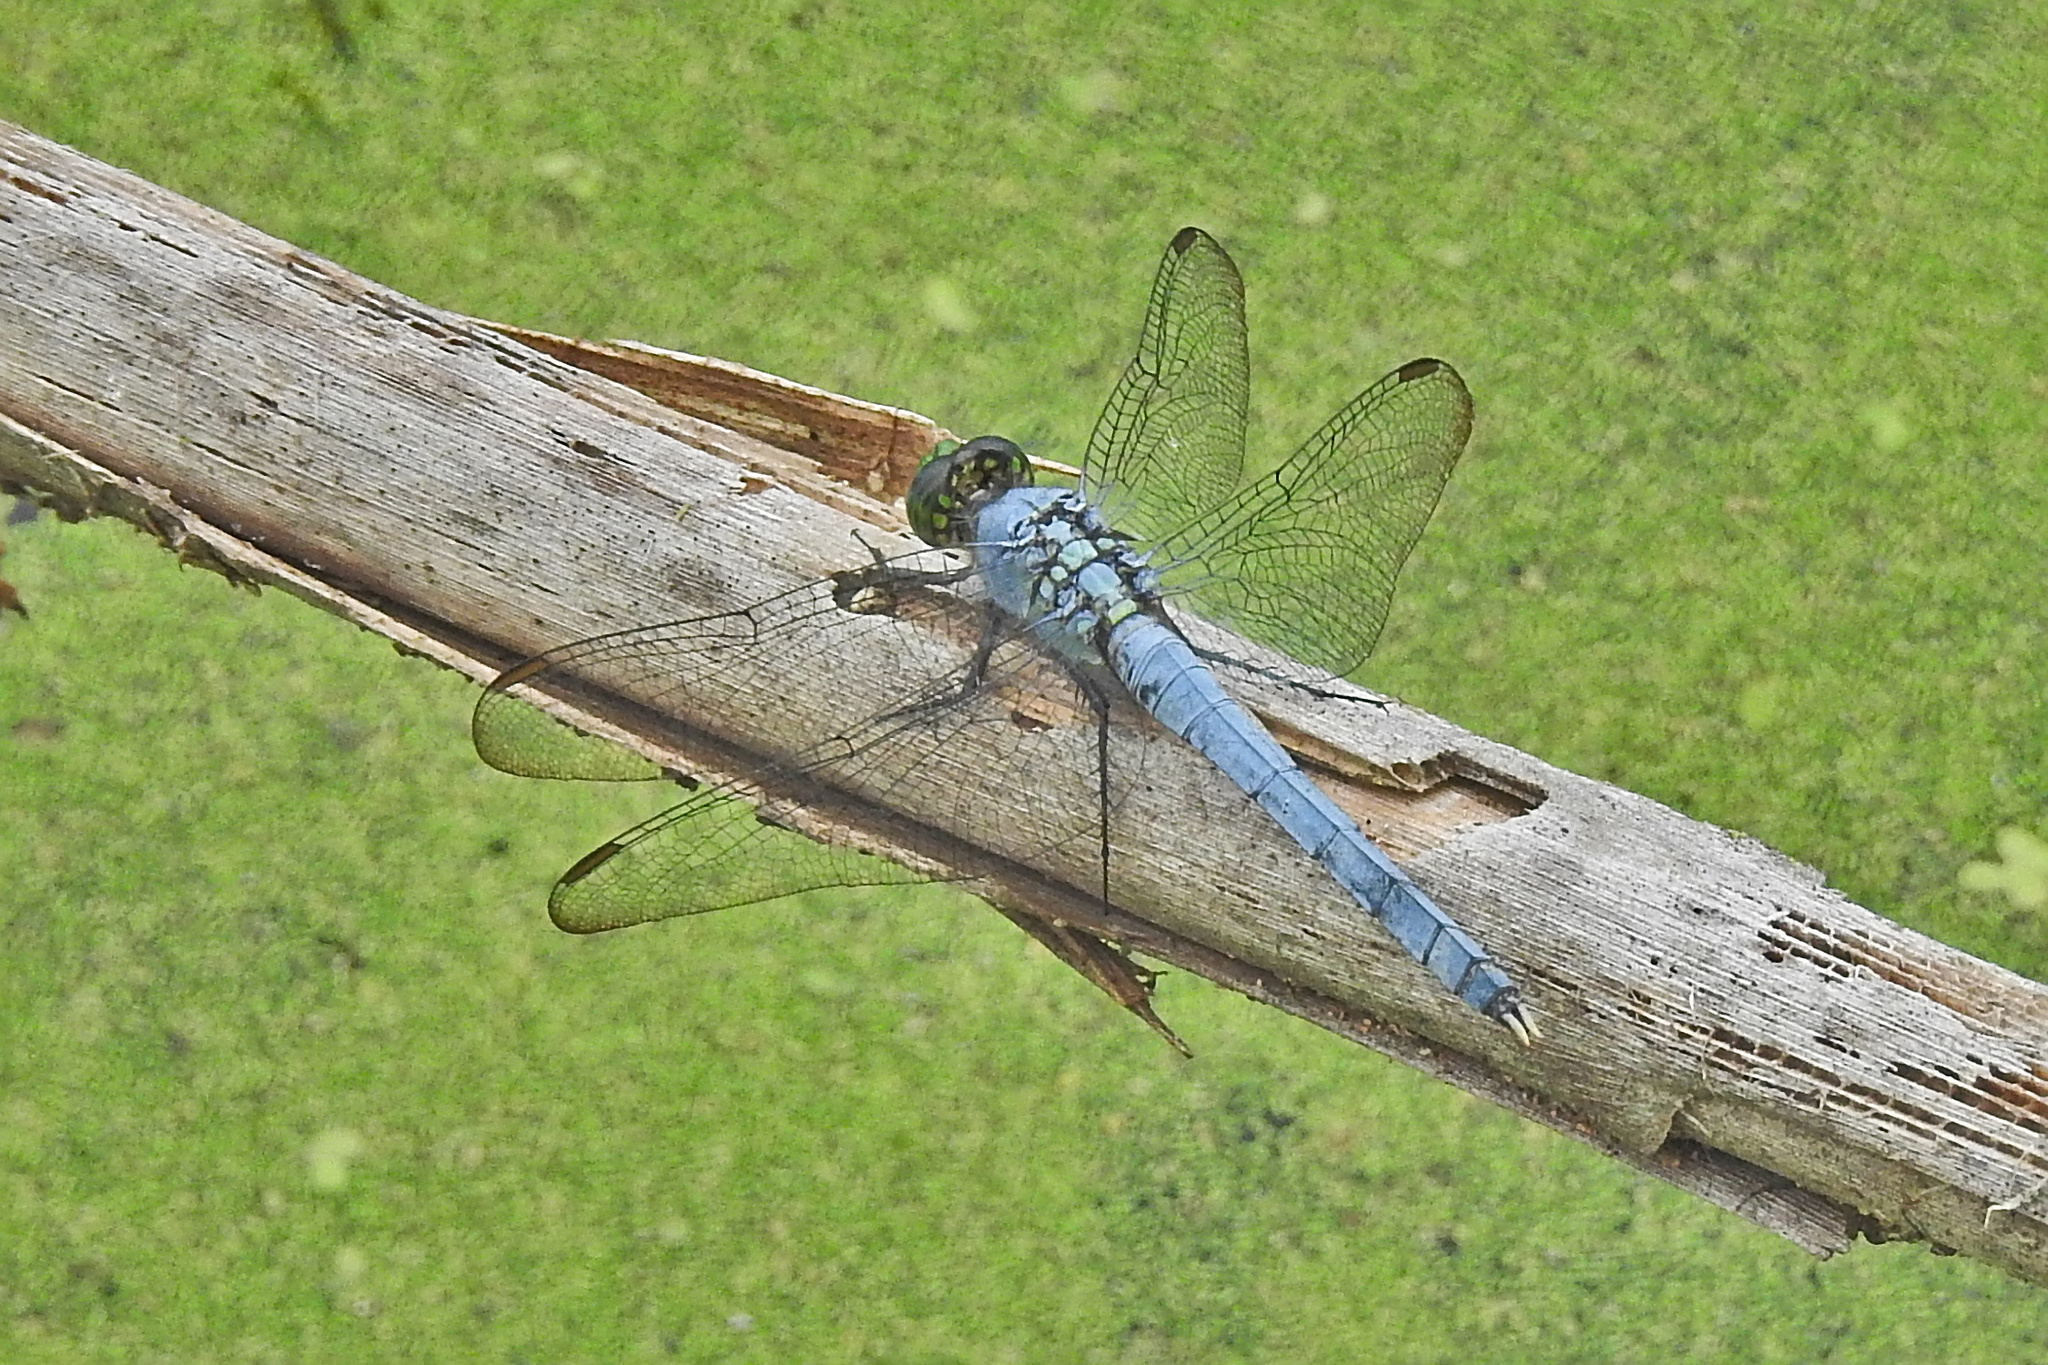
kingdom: Animalia
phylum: Arthropoda
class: Insecta
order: Odonata
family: Libellulidae
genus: Erythemis
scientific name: Erythemis simplicicollis
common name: Eastern pondhawk
